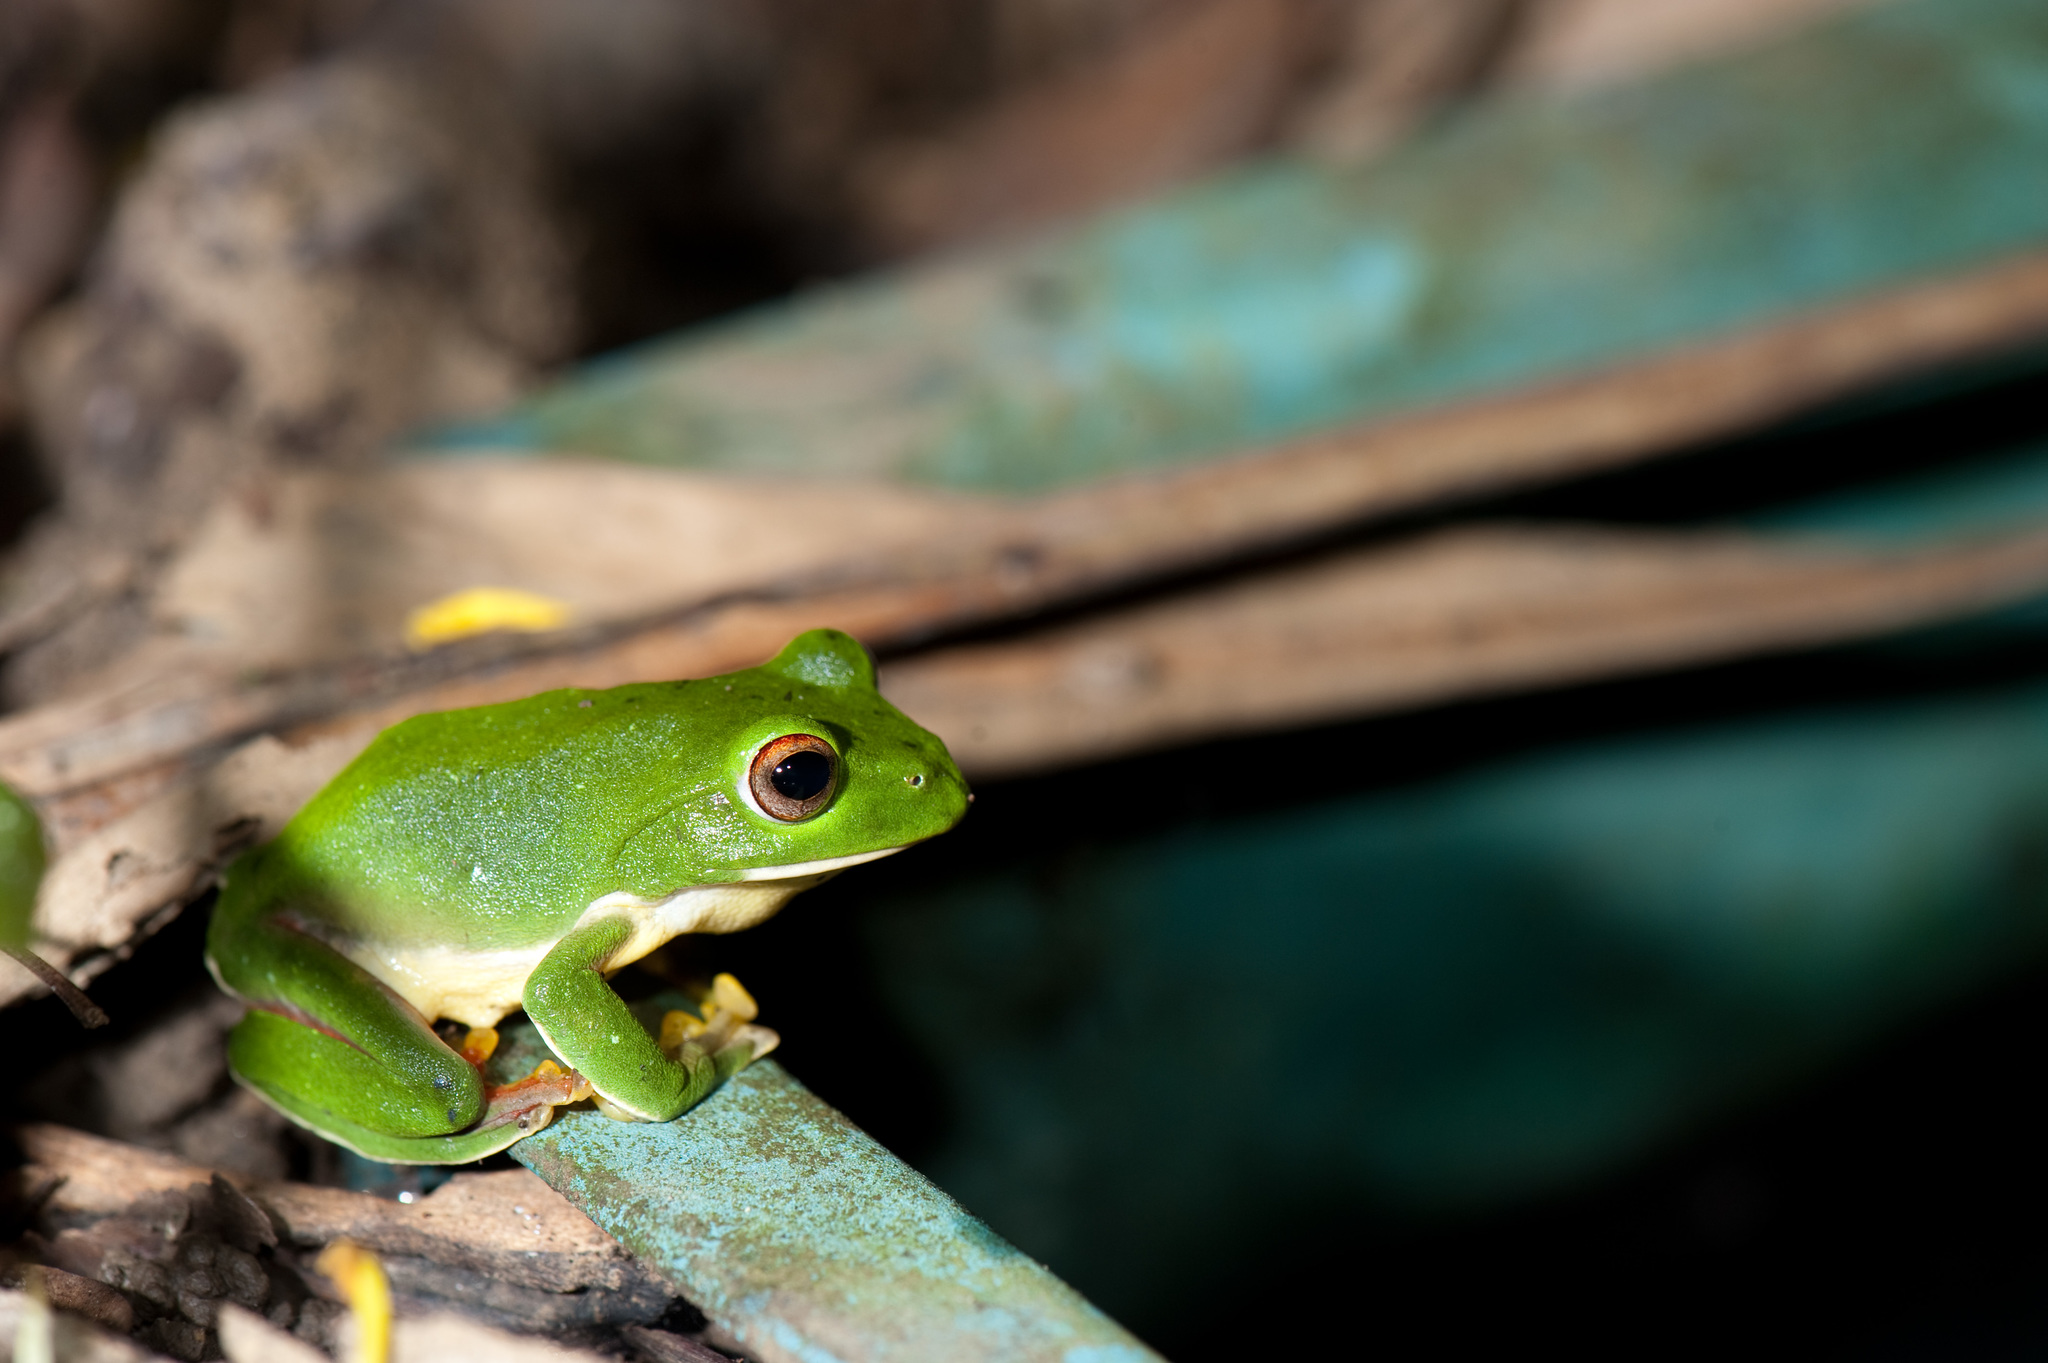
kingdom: Animalia
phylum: Chordata
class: Amphibia
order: Anura
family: Rhacophoridae
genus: Zhangixalus
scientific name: Zhangixalus moltrechti
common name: Moltrecht's treefrog
